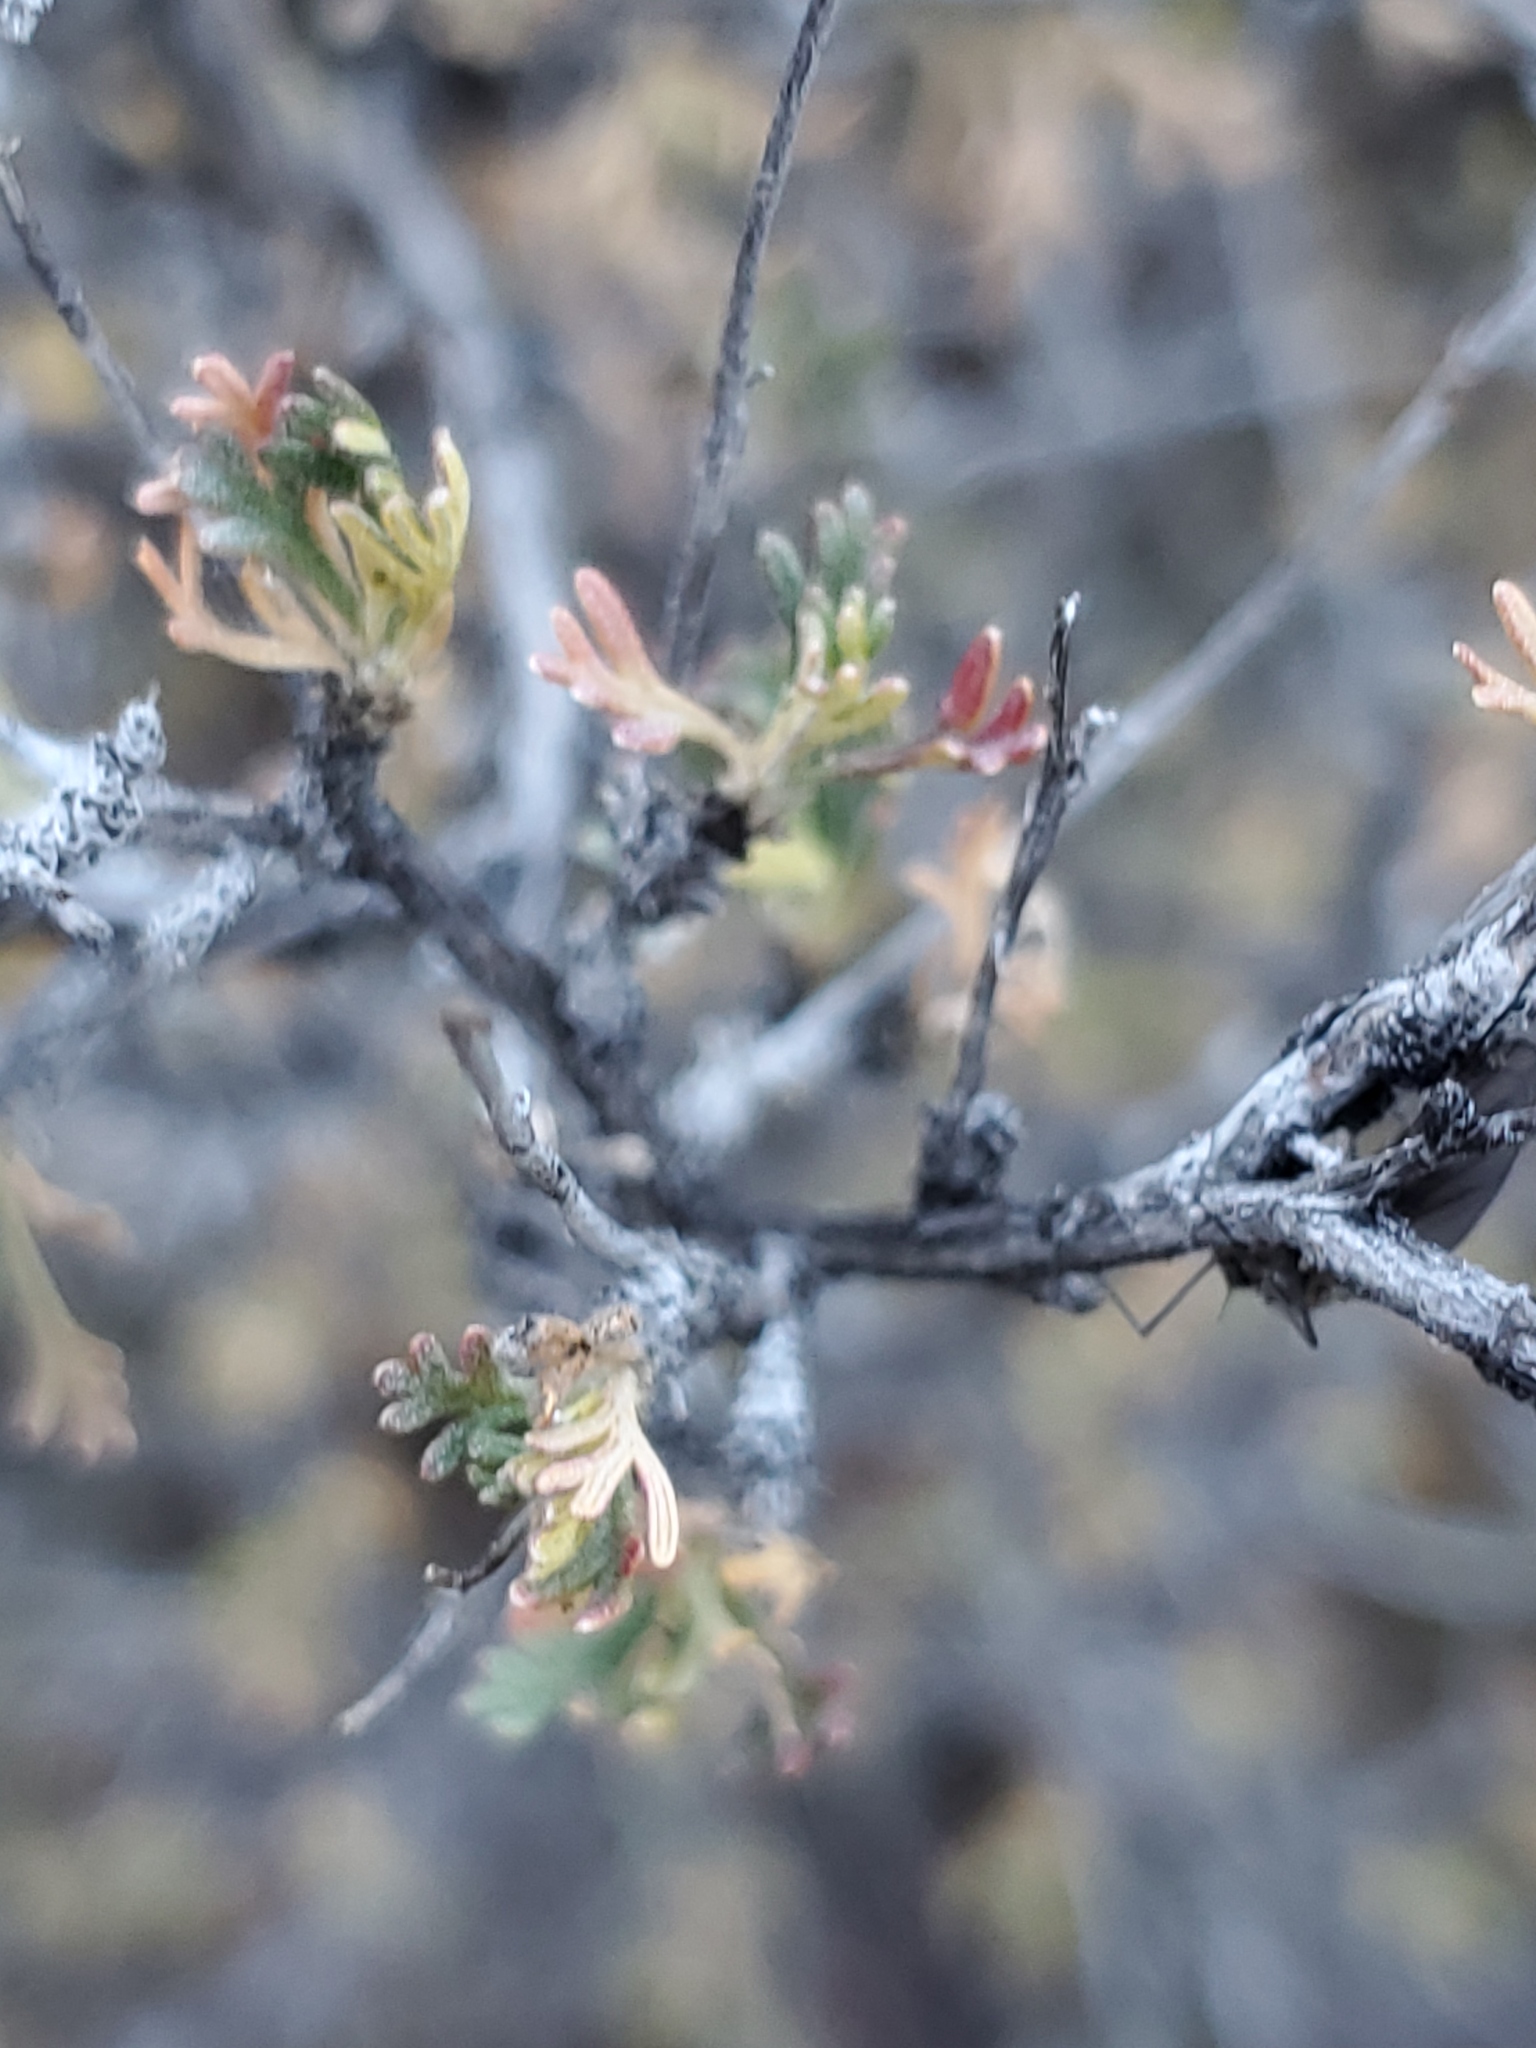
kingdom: Plantae
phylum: Tracheophyta
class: Magnoliopsida
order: Rosales
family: Rosaceae
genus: Fallugia
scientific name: Fallugia paradoxa
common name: Apache-plume
